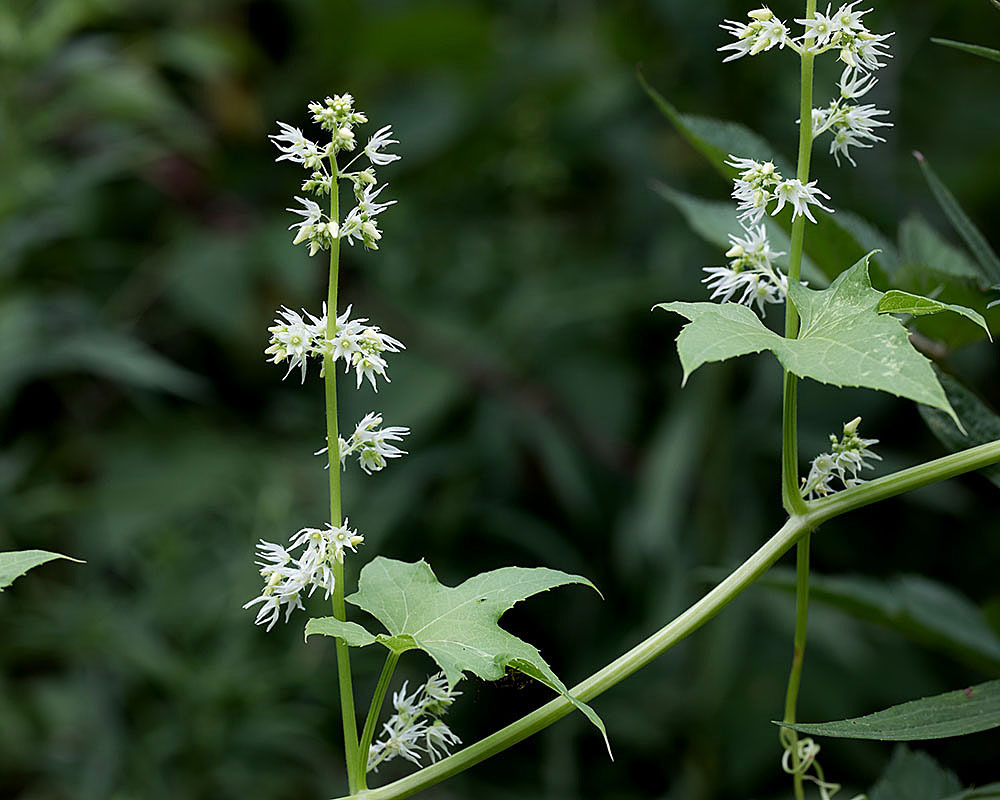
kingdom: Plantae
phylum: Tracheophyta
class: Magnoliopsida
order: Cucurbitales
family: Cucurbitaceae
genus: Echinocystis
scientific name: Echinocystis lobata
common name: Wild cucumber
